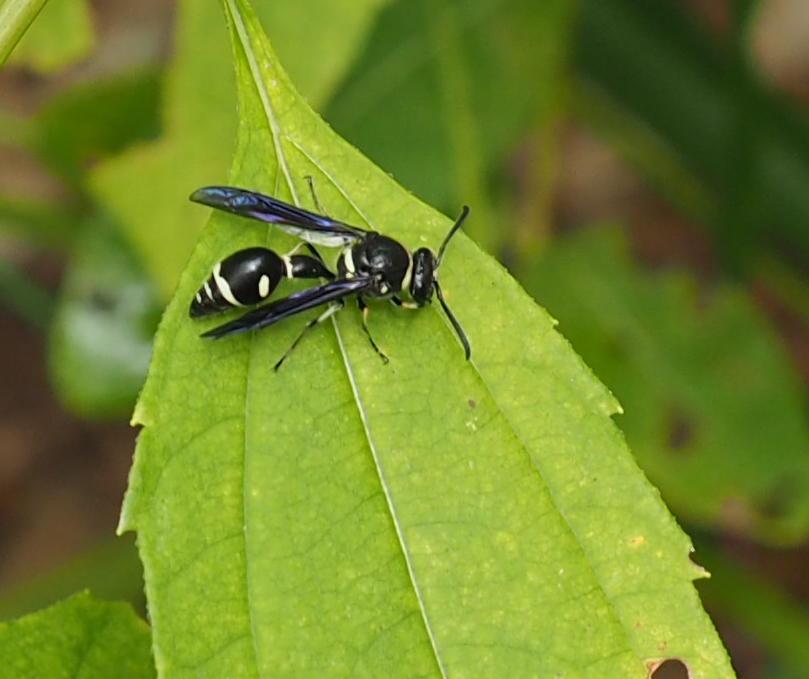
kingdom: Animalia
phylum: Arthropoda
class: Insecta
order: Hymenoptera
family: Vespidae
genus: Eumenes
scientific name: Eumenes fraternus
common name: Fraternal potter wasp
